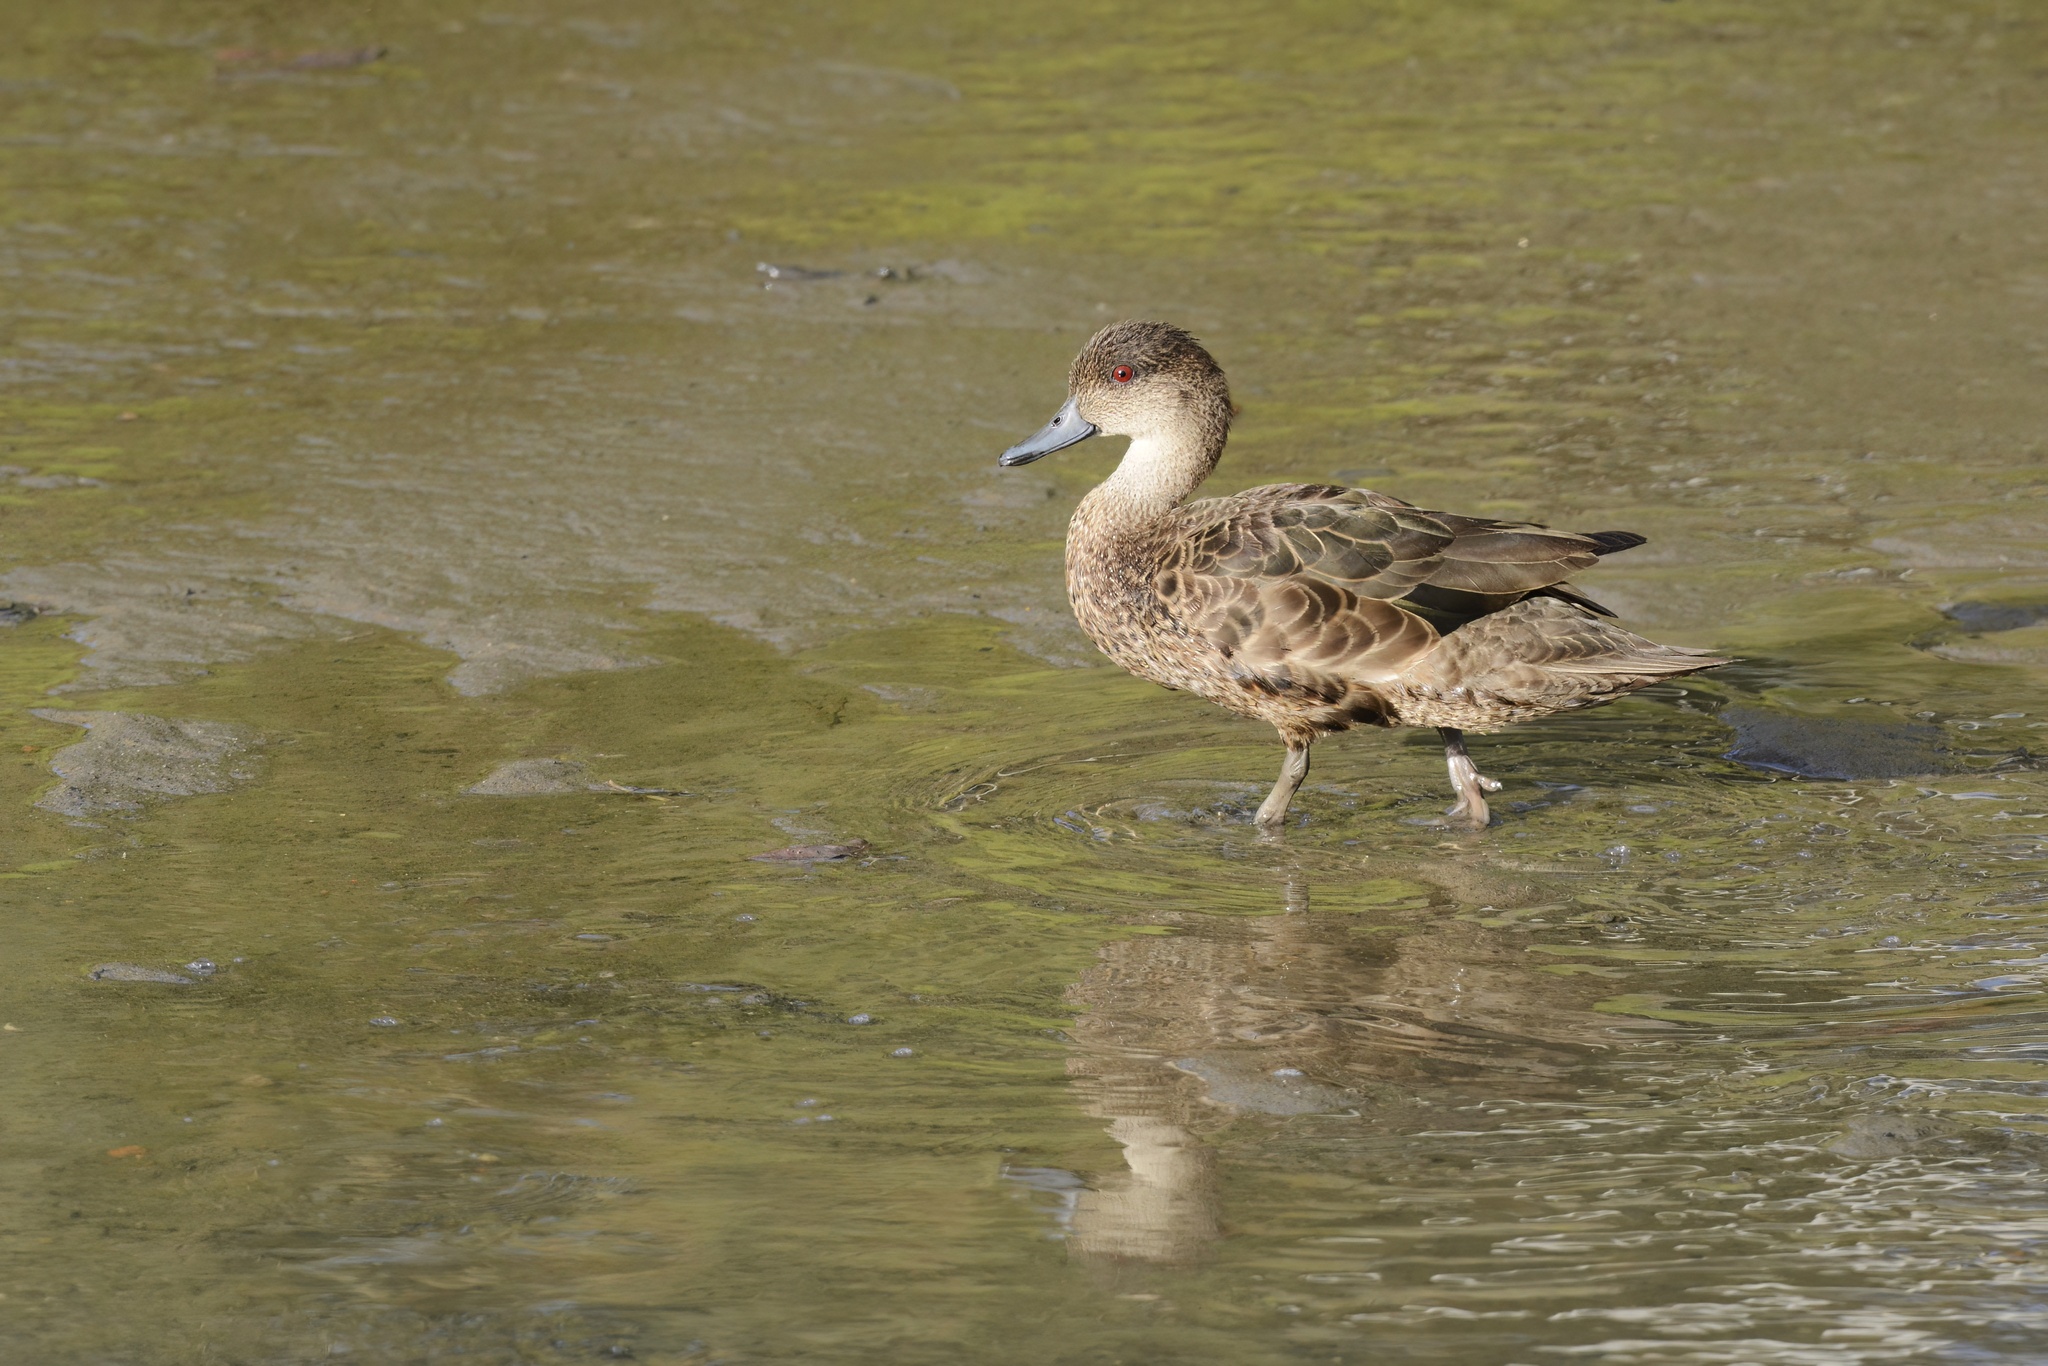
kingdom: Animalia
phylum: Chordata
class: Aves
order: Anseriformes
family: Anatidae
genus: Anas
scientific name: Anas castanea
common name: Chestnut teal
